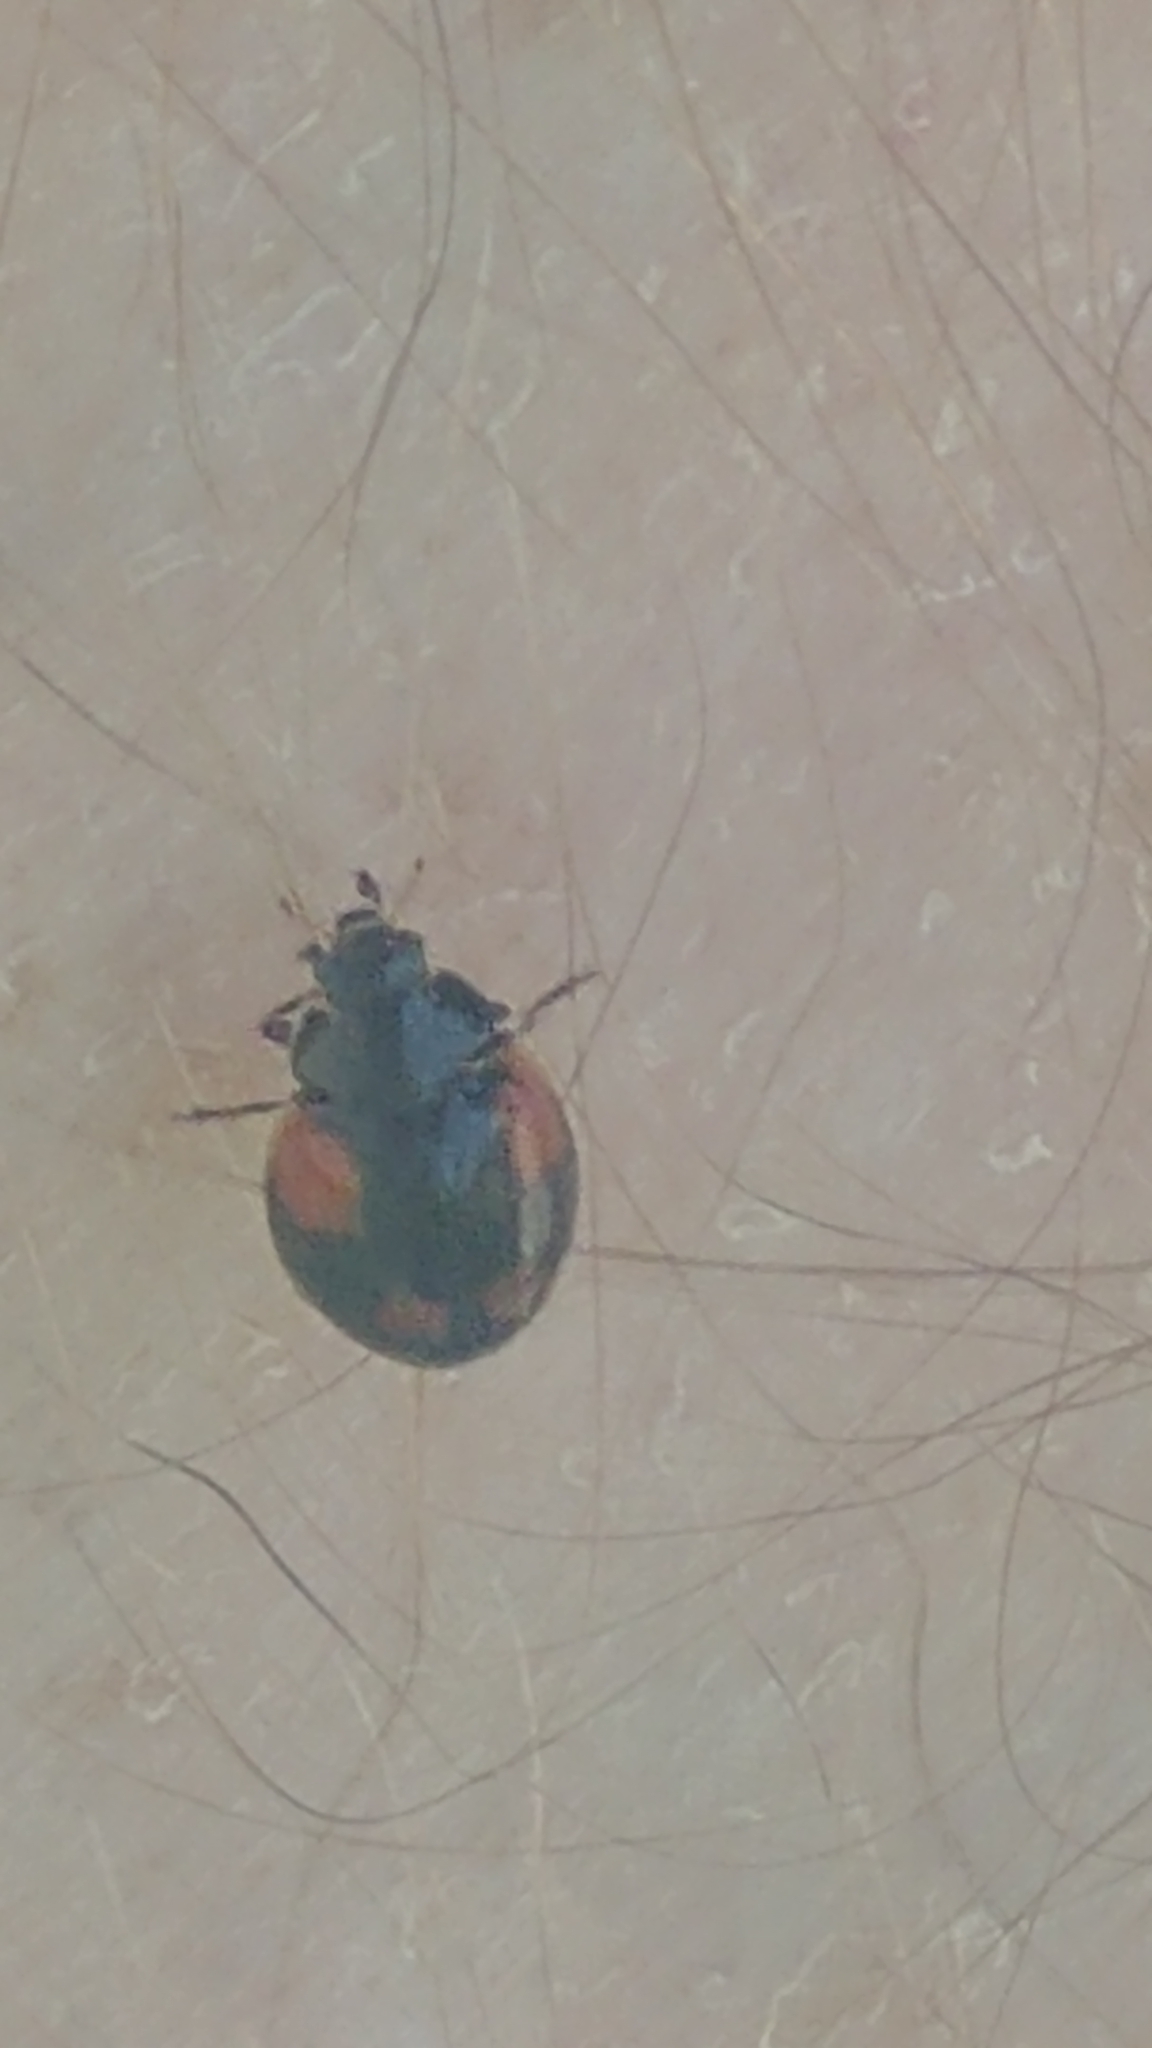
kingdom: Animalia
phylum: Arthropoda
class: Insecta
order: Coleoptera
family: Coccinellidae
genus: Adalia
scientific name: Adalia bipunctata
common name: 2-spot ladybird
